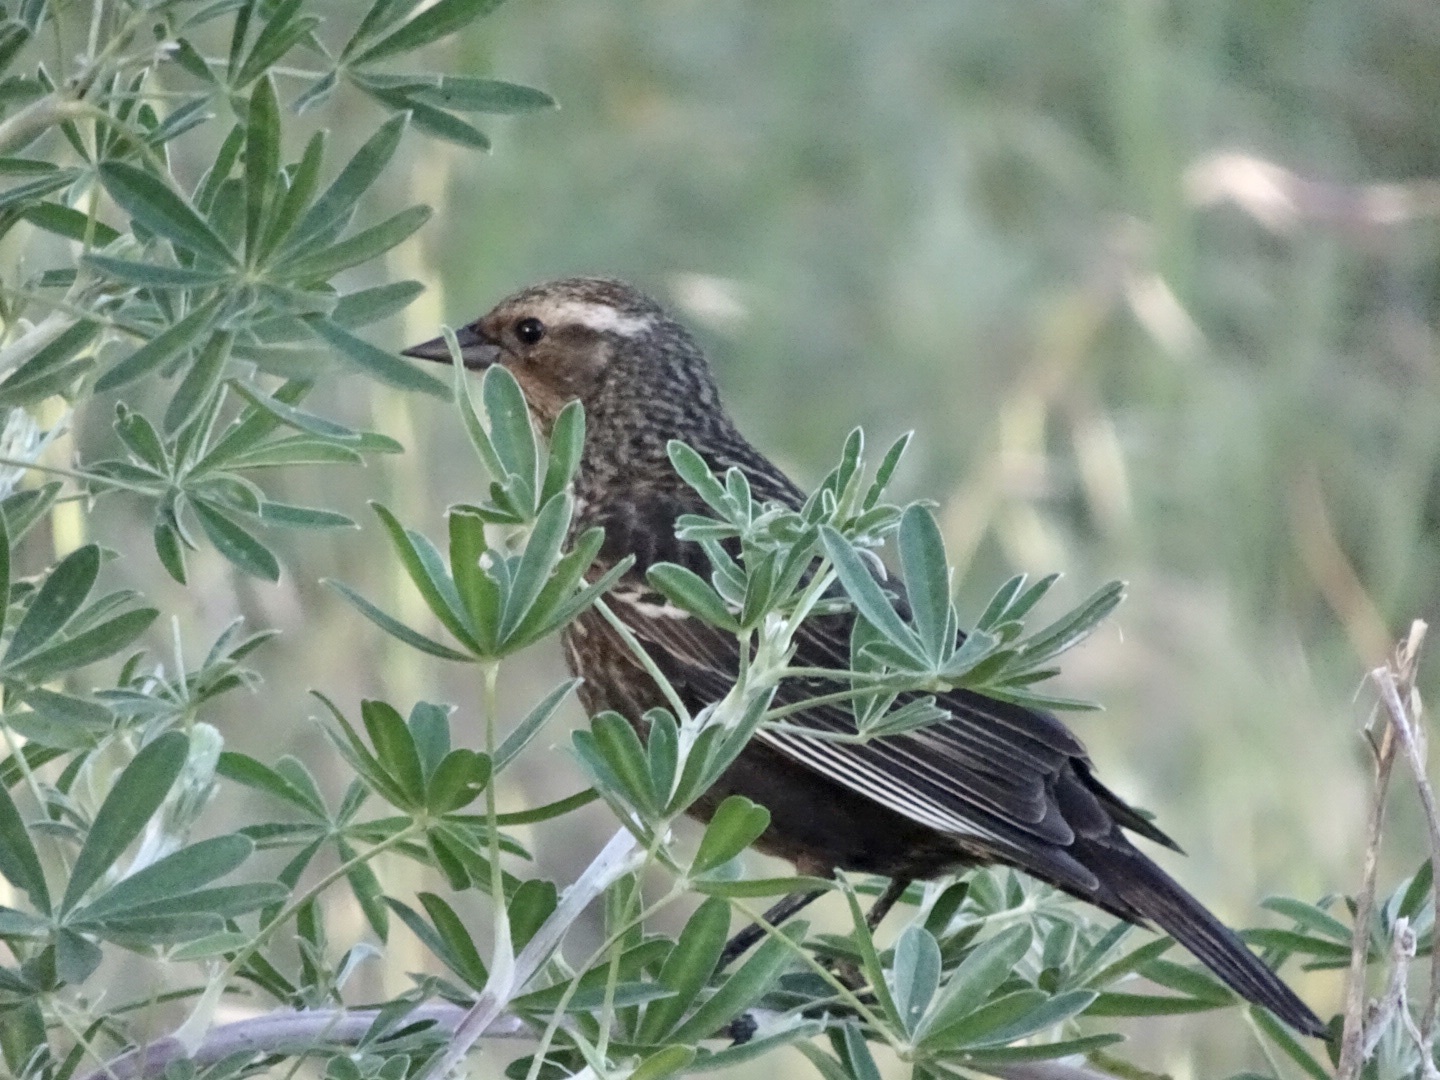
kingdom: Animalia
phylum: Chordata
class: Aves
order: Passeriformes
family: Icteridae
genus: Agelaius
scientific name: Agelaius phoeniceus
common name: Red-winged blackbird
